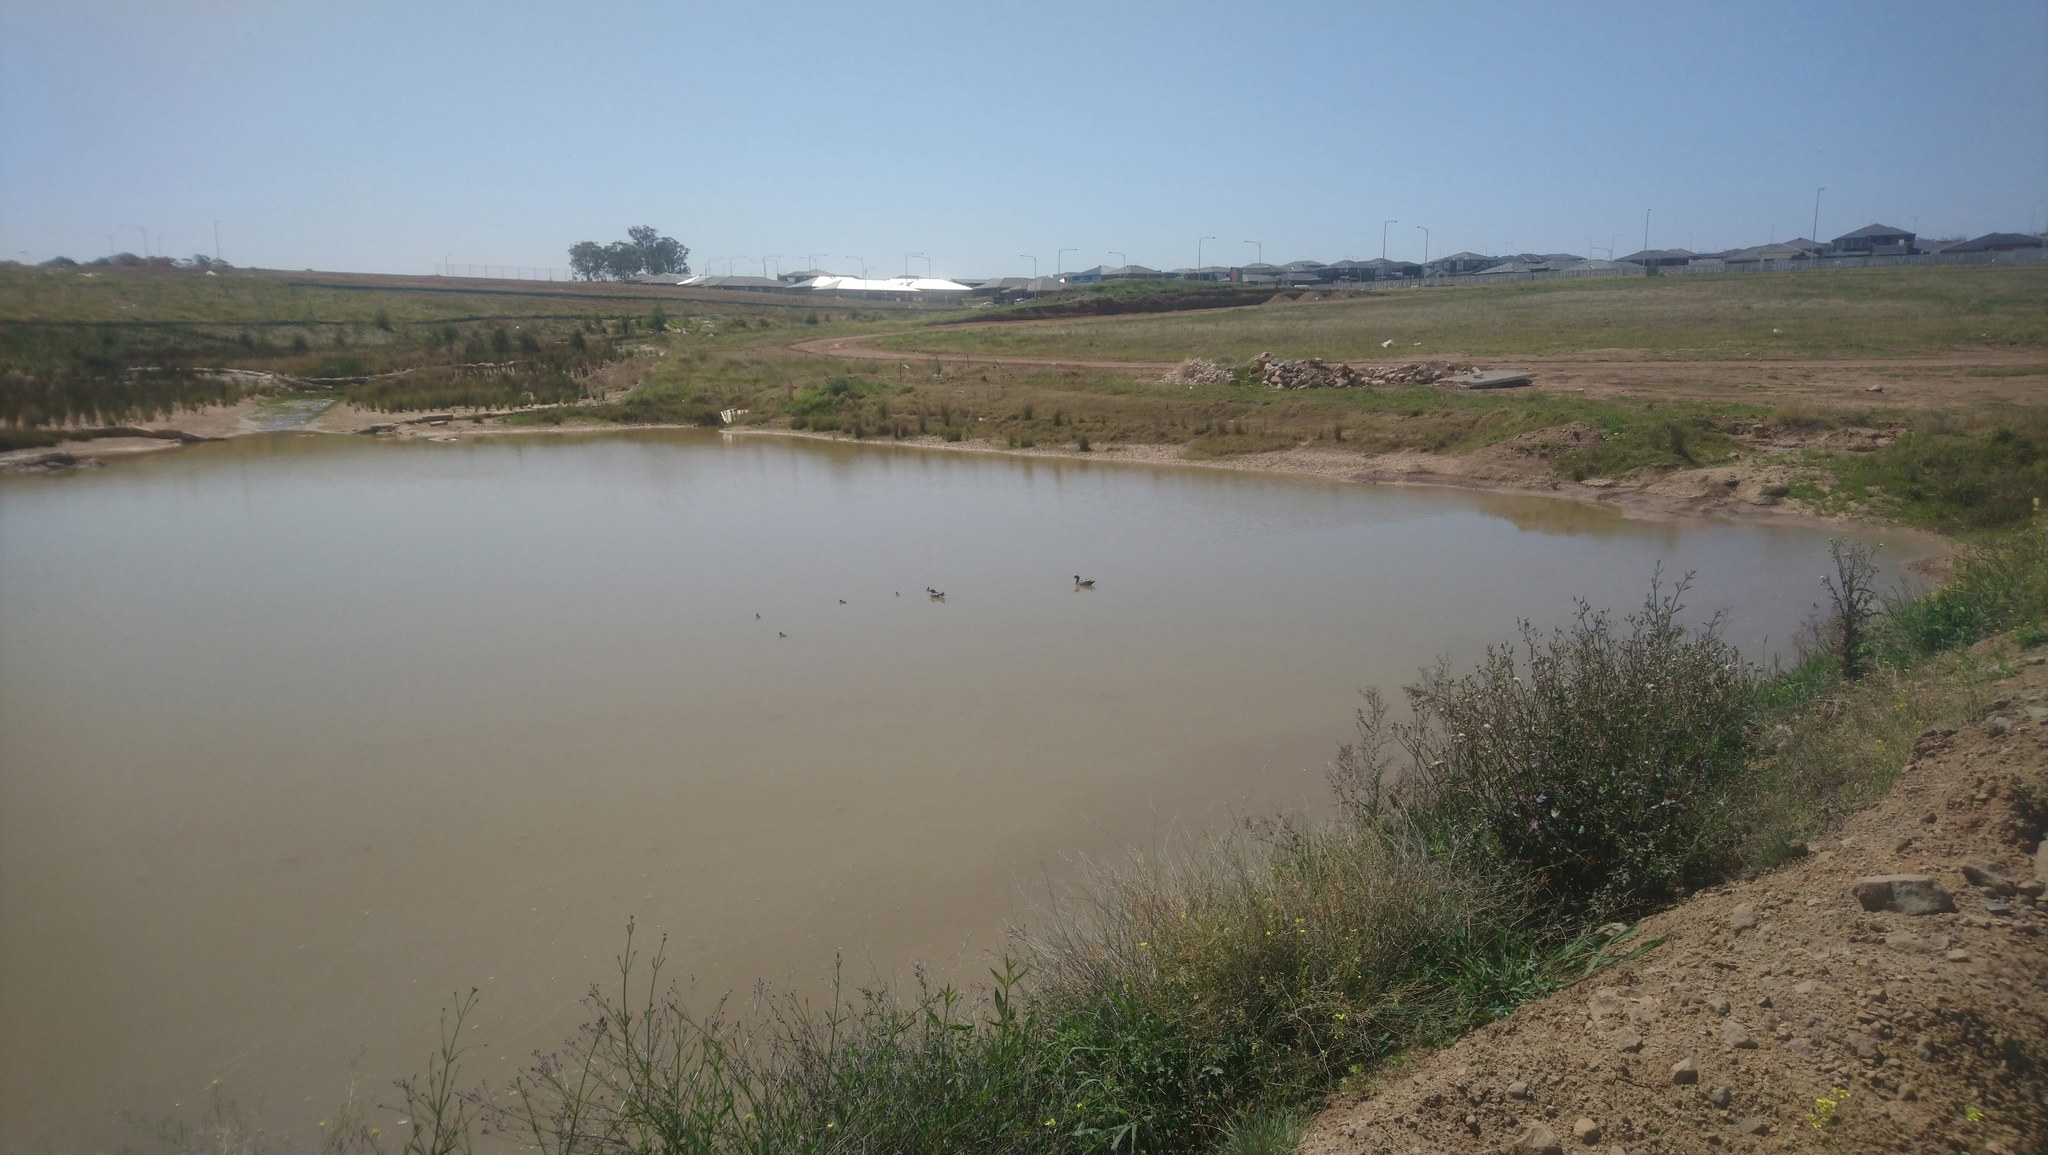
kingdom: Animalia
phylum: Chordata
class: Aves
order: Anseriformes
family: Anatidae
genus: Chenonetta
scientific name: Chenonetta jubata
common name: Maned duck
